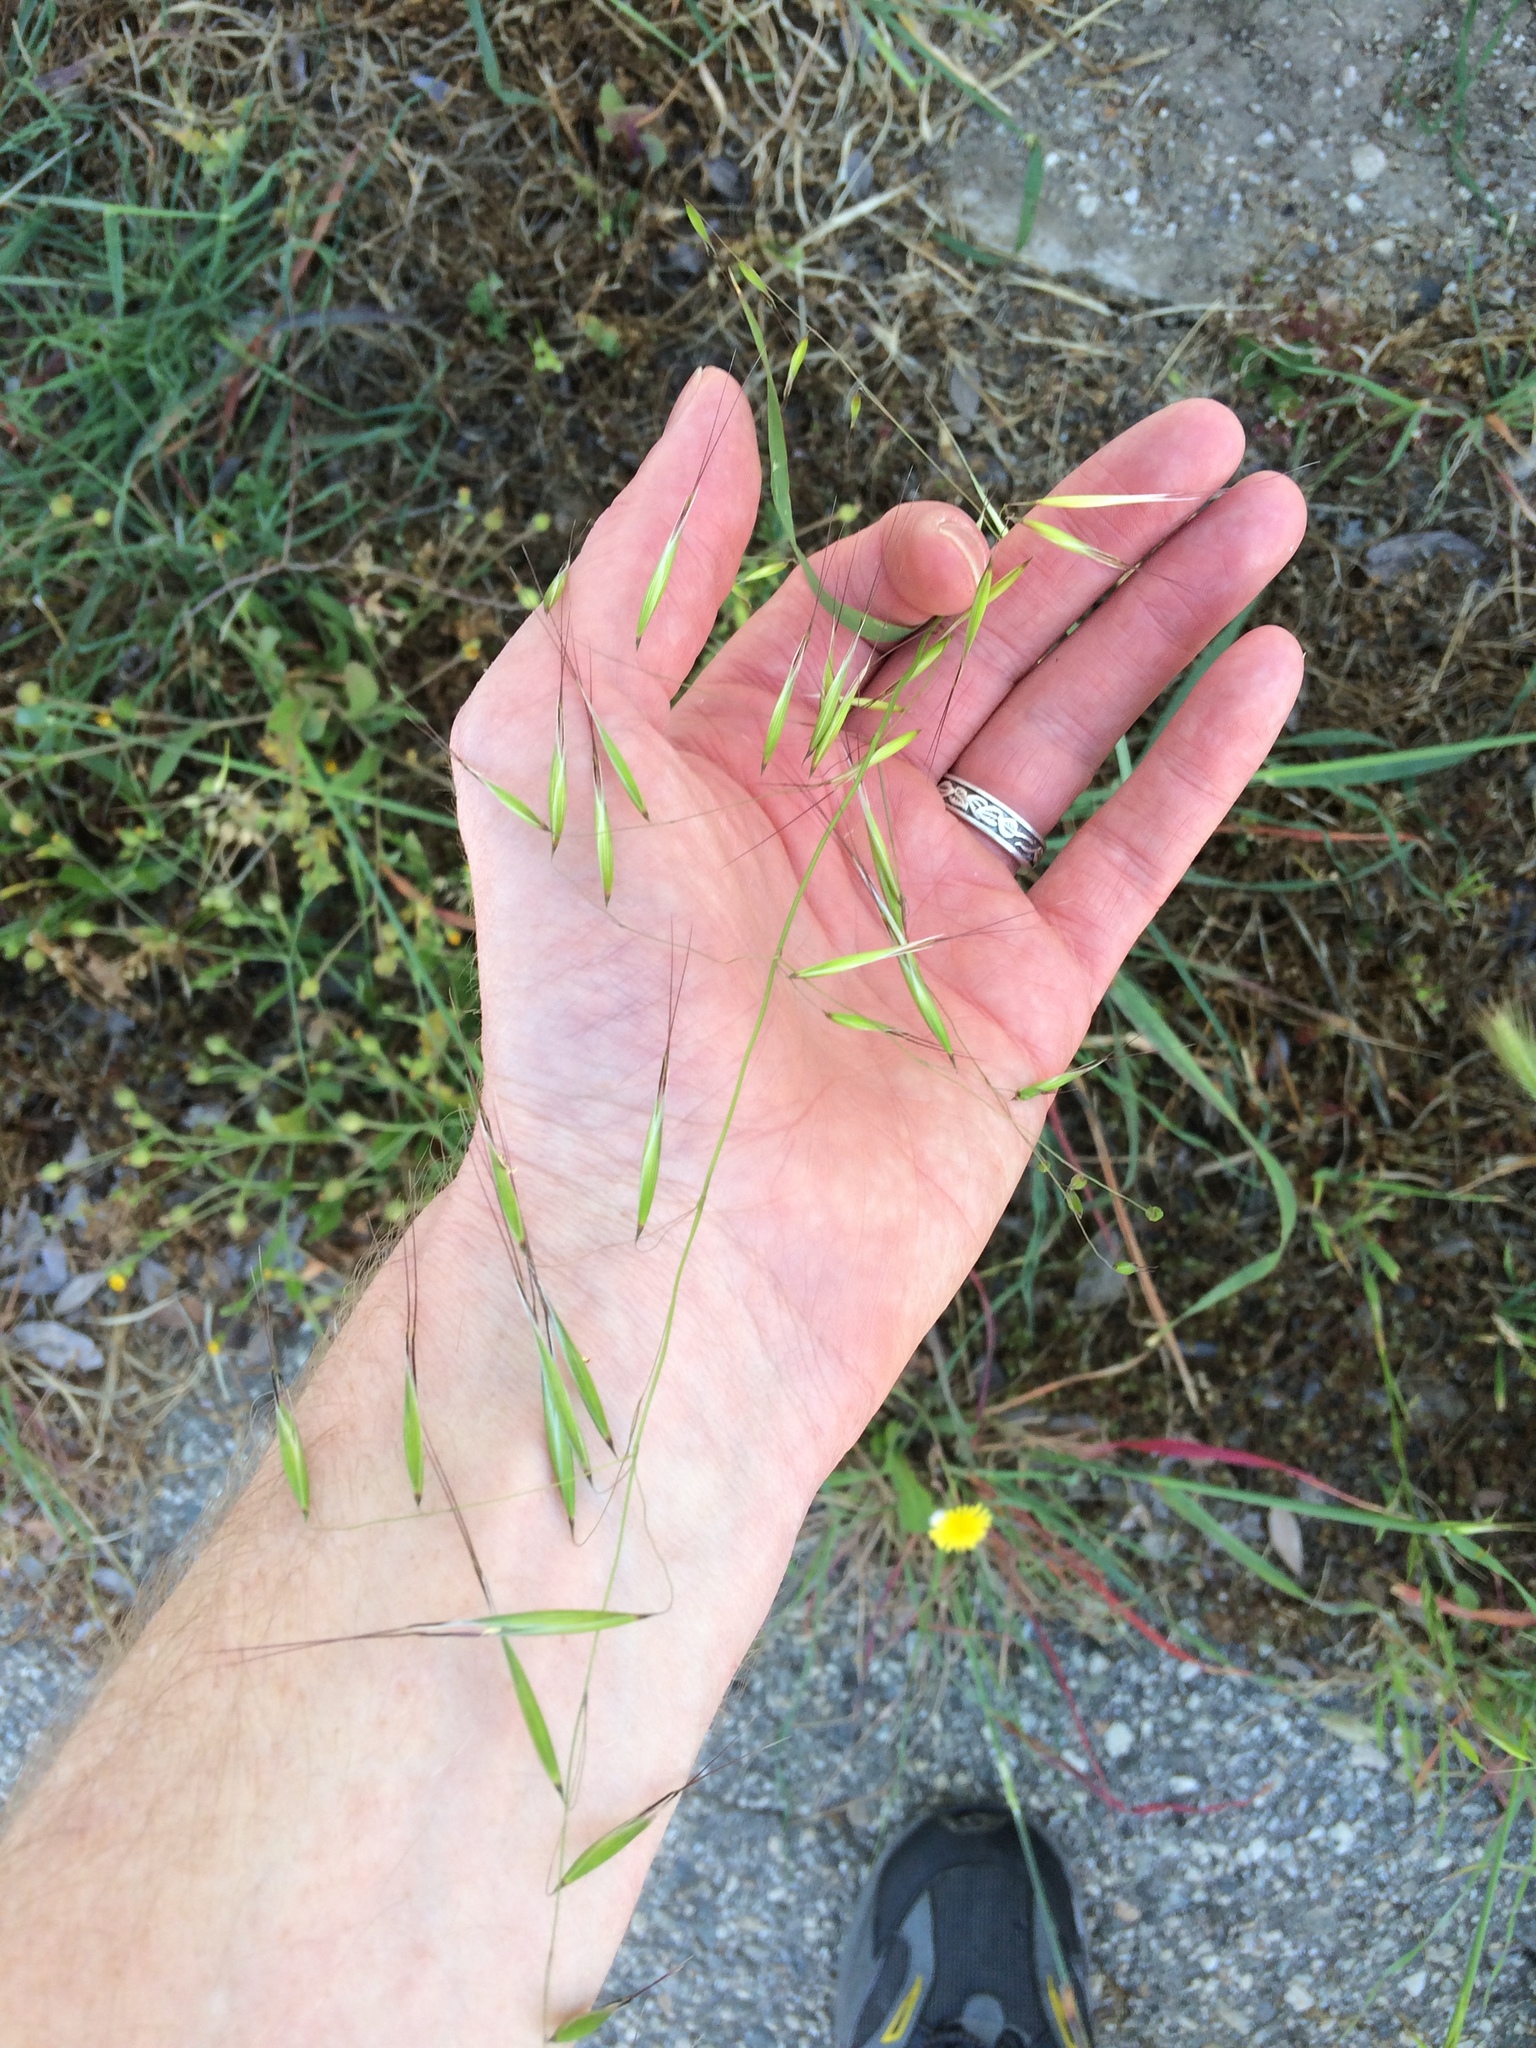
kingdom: Plantae
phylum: Tracheophyta
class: Liliopsida
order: Poales
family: Poaceae
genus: Avena
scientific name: Avena barbata
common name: Slender oat
